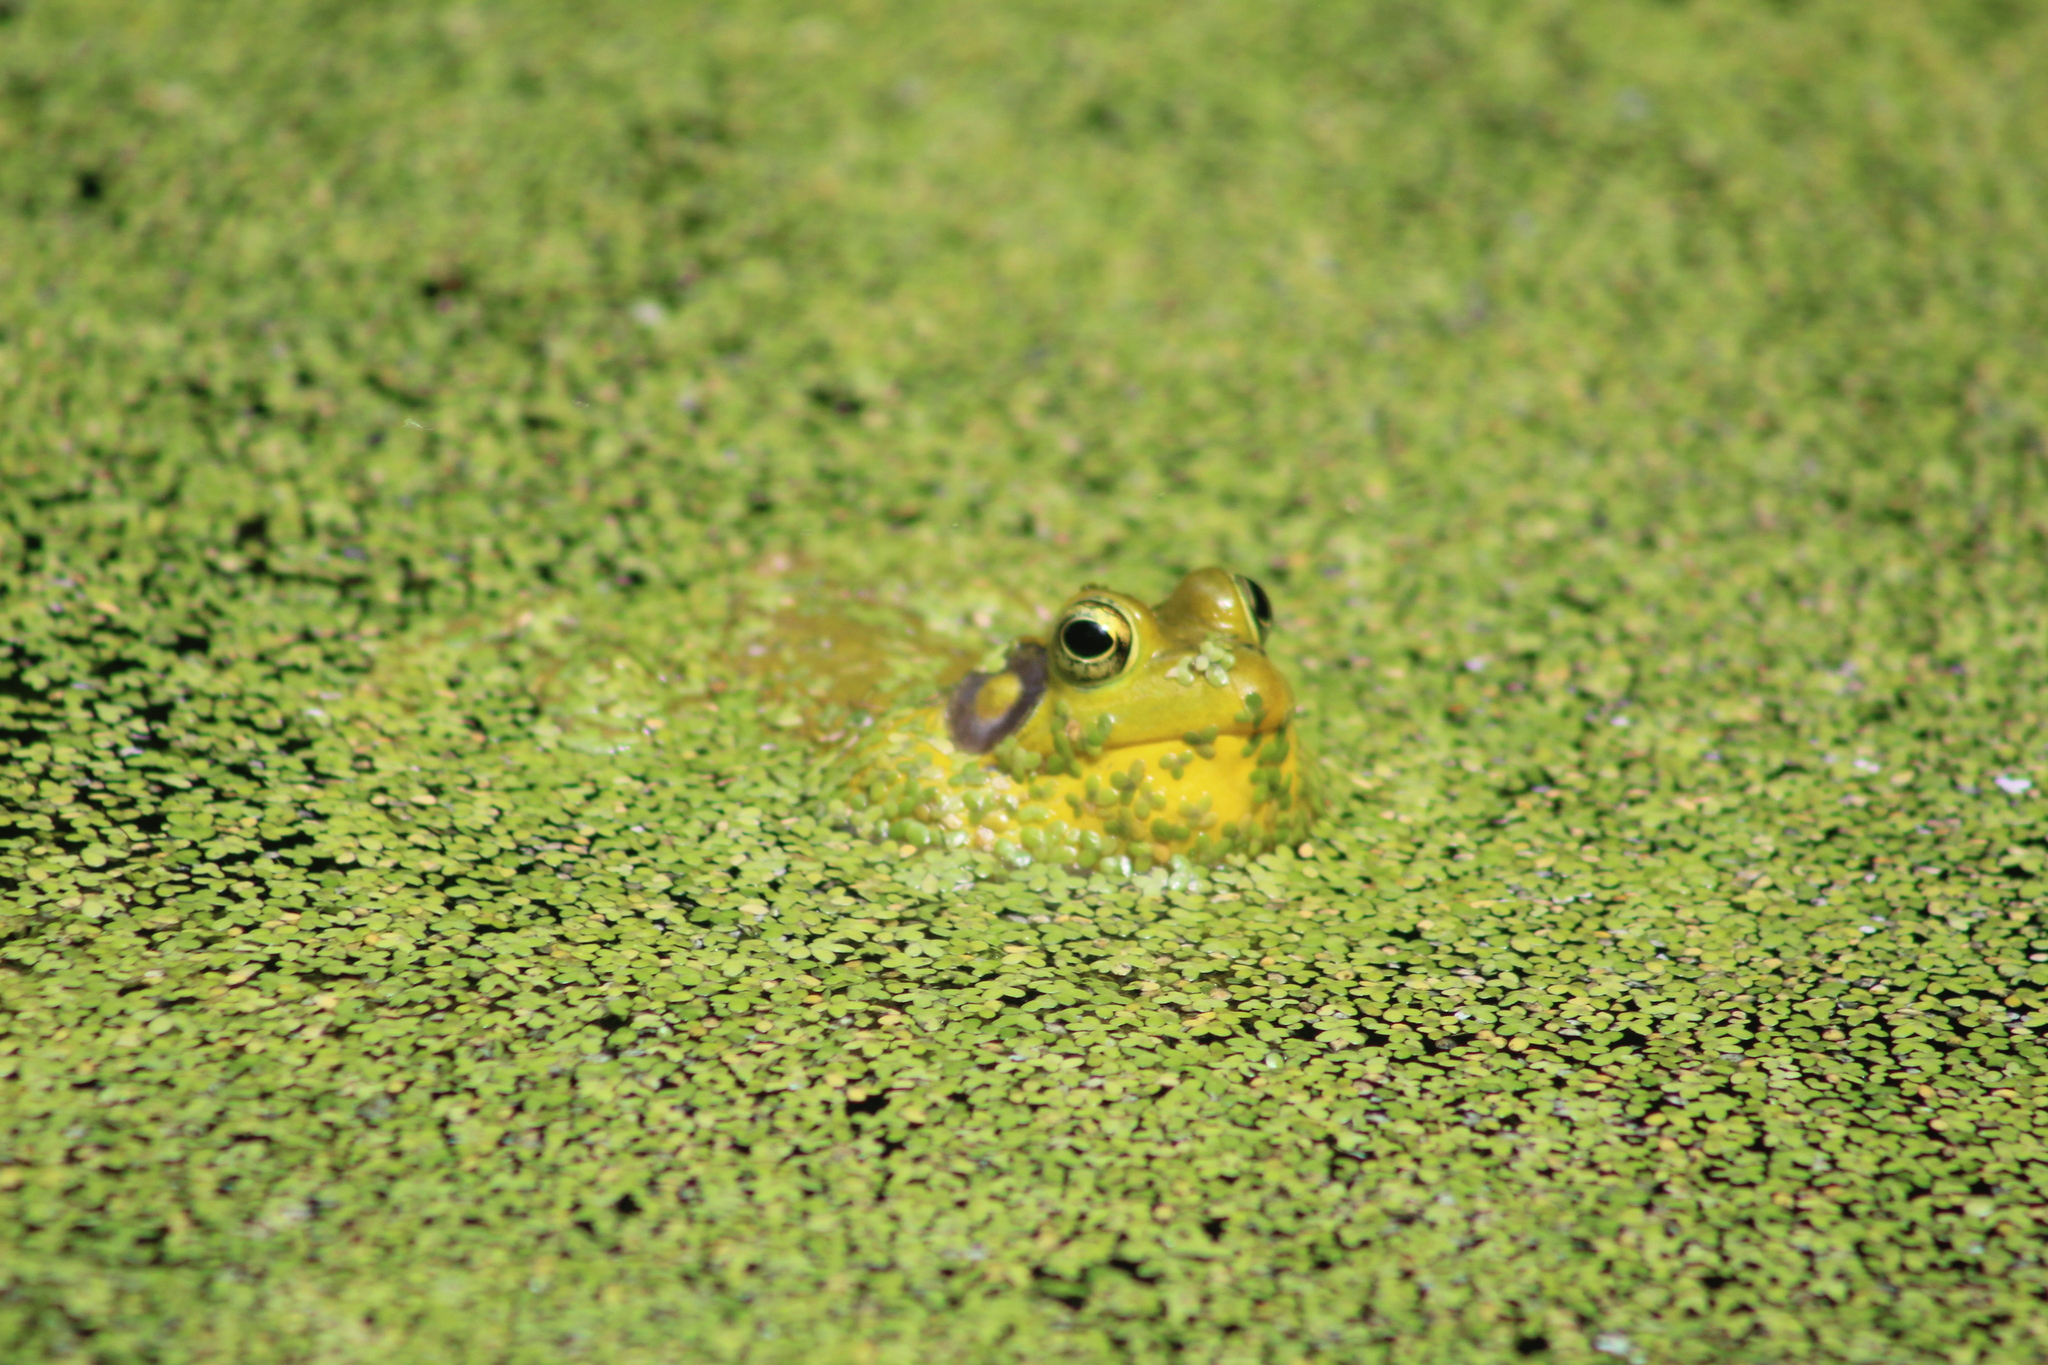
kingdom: Animalia
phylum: Chordata
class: Amphibia
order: Anura
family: Ranidae
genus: Lithobates
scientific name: Lithobates catesbeianus
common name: American bullfrog
